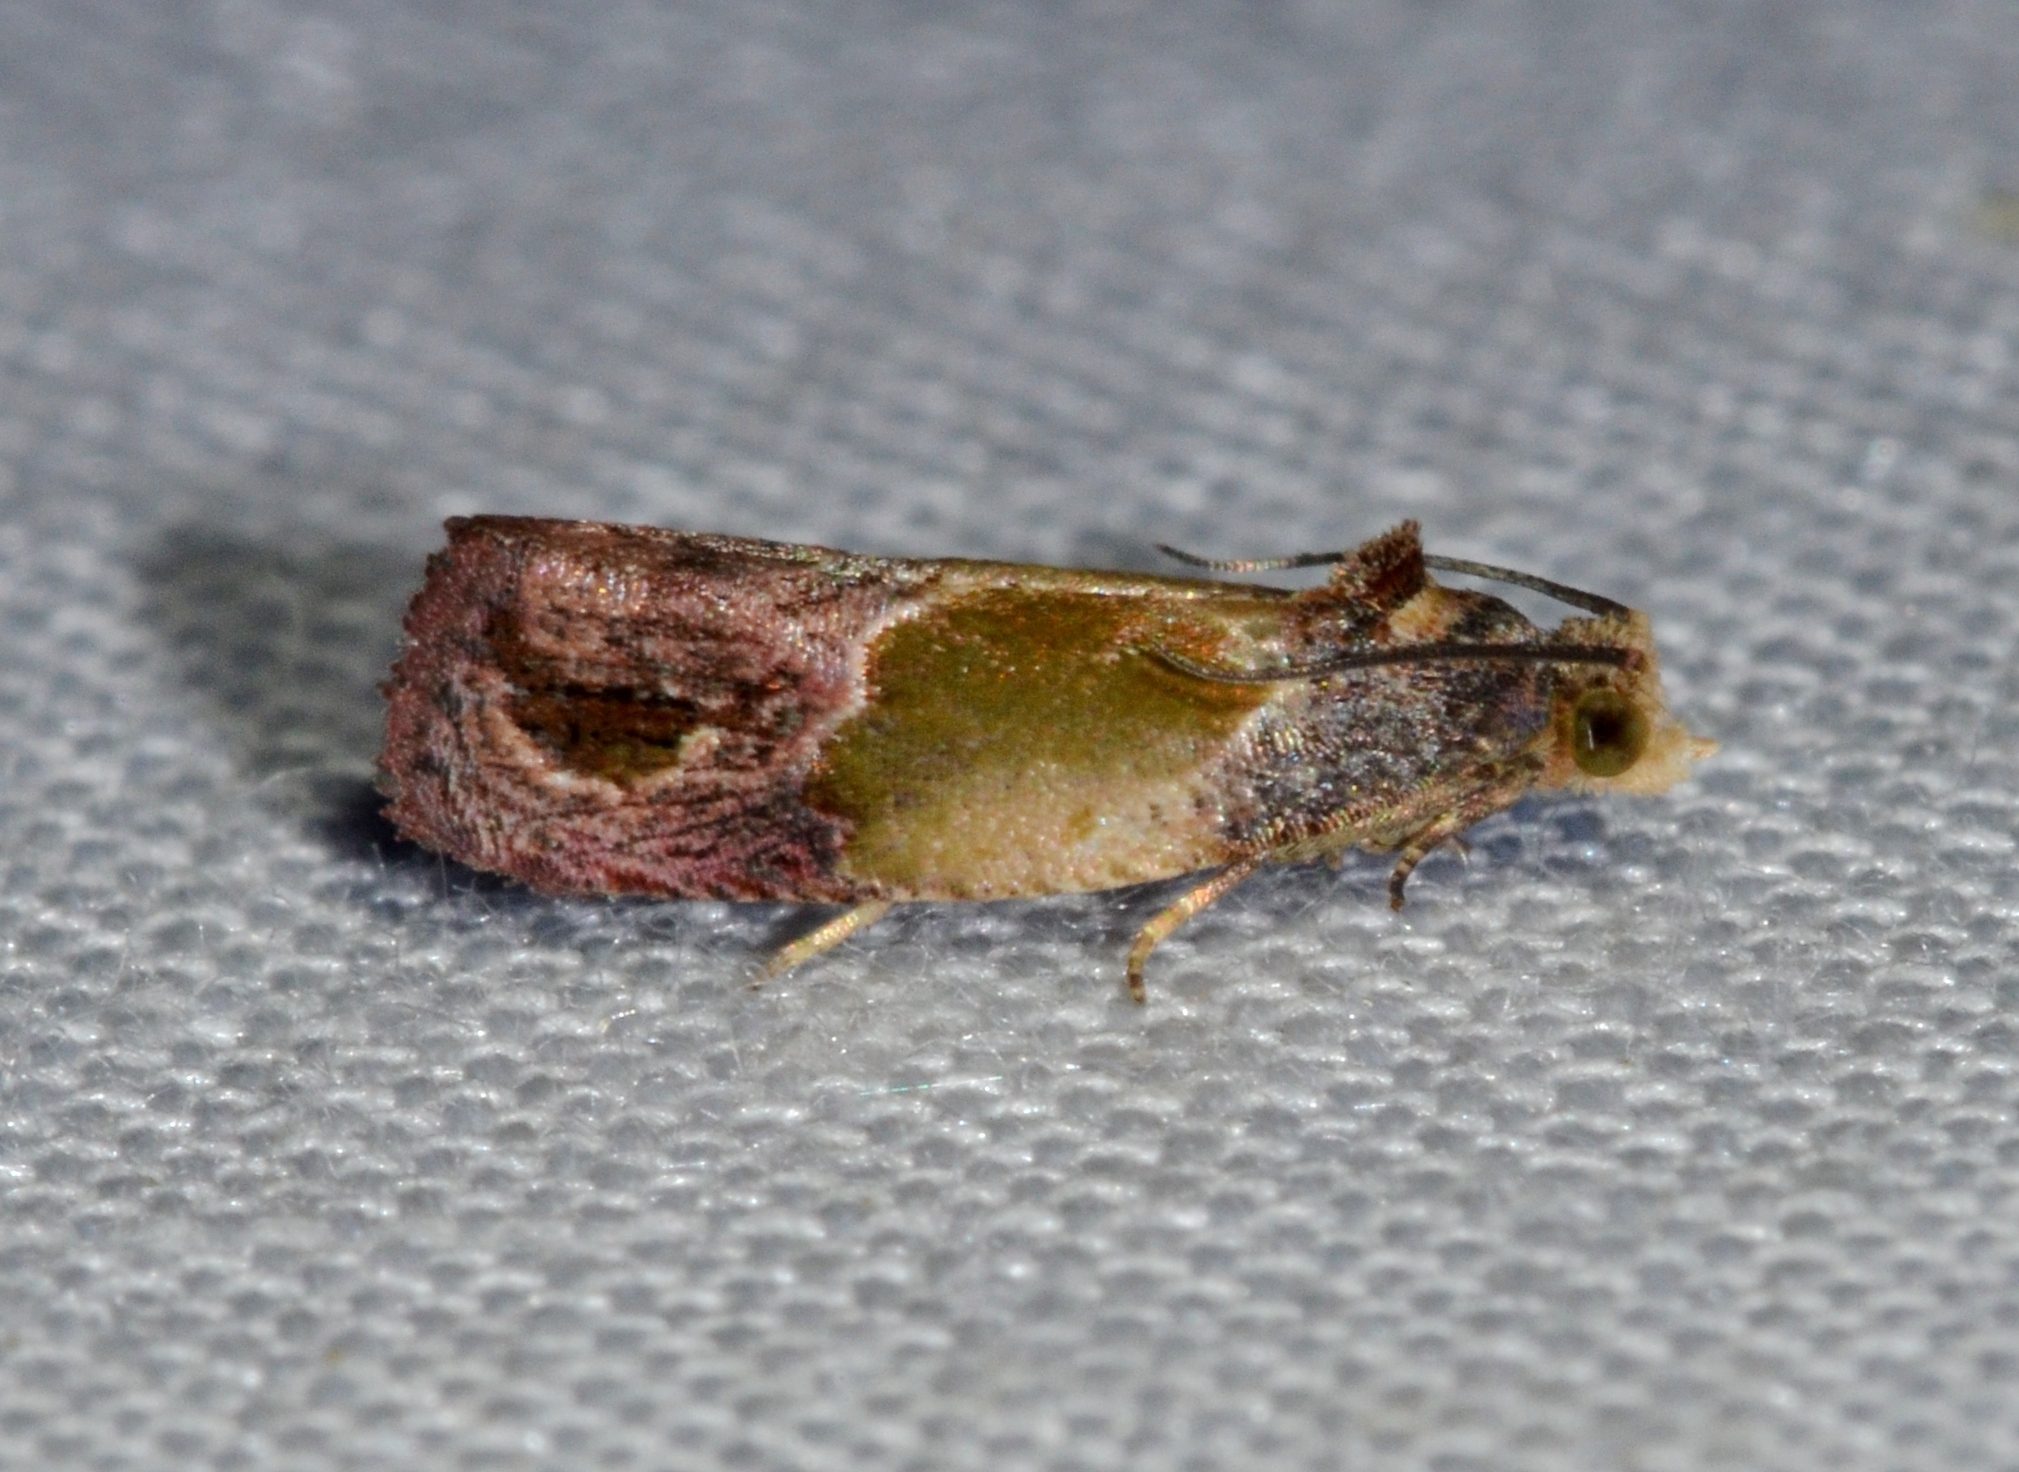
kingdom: Animalia
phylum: Arthropoda
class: Insecta
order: Lepidoptera
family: Tortricidae
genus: Eumarozia
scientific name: Eumarozia malachitana
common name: Sculptured moth
